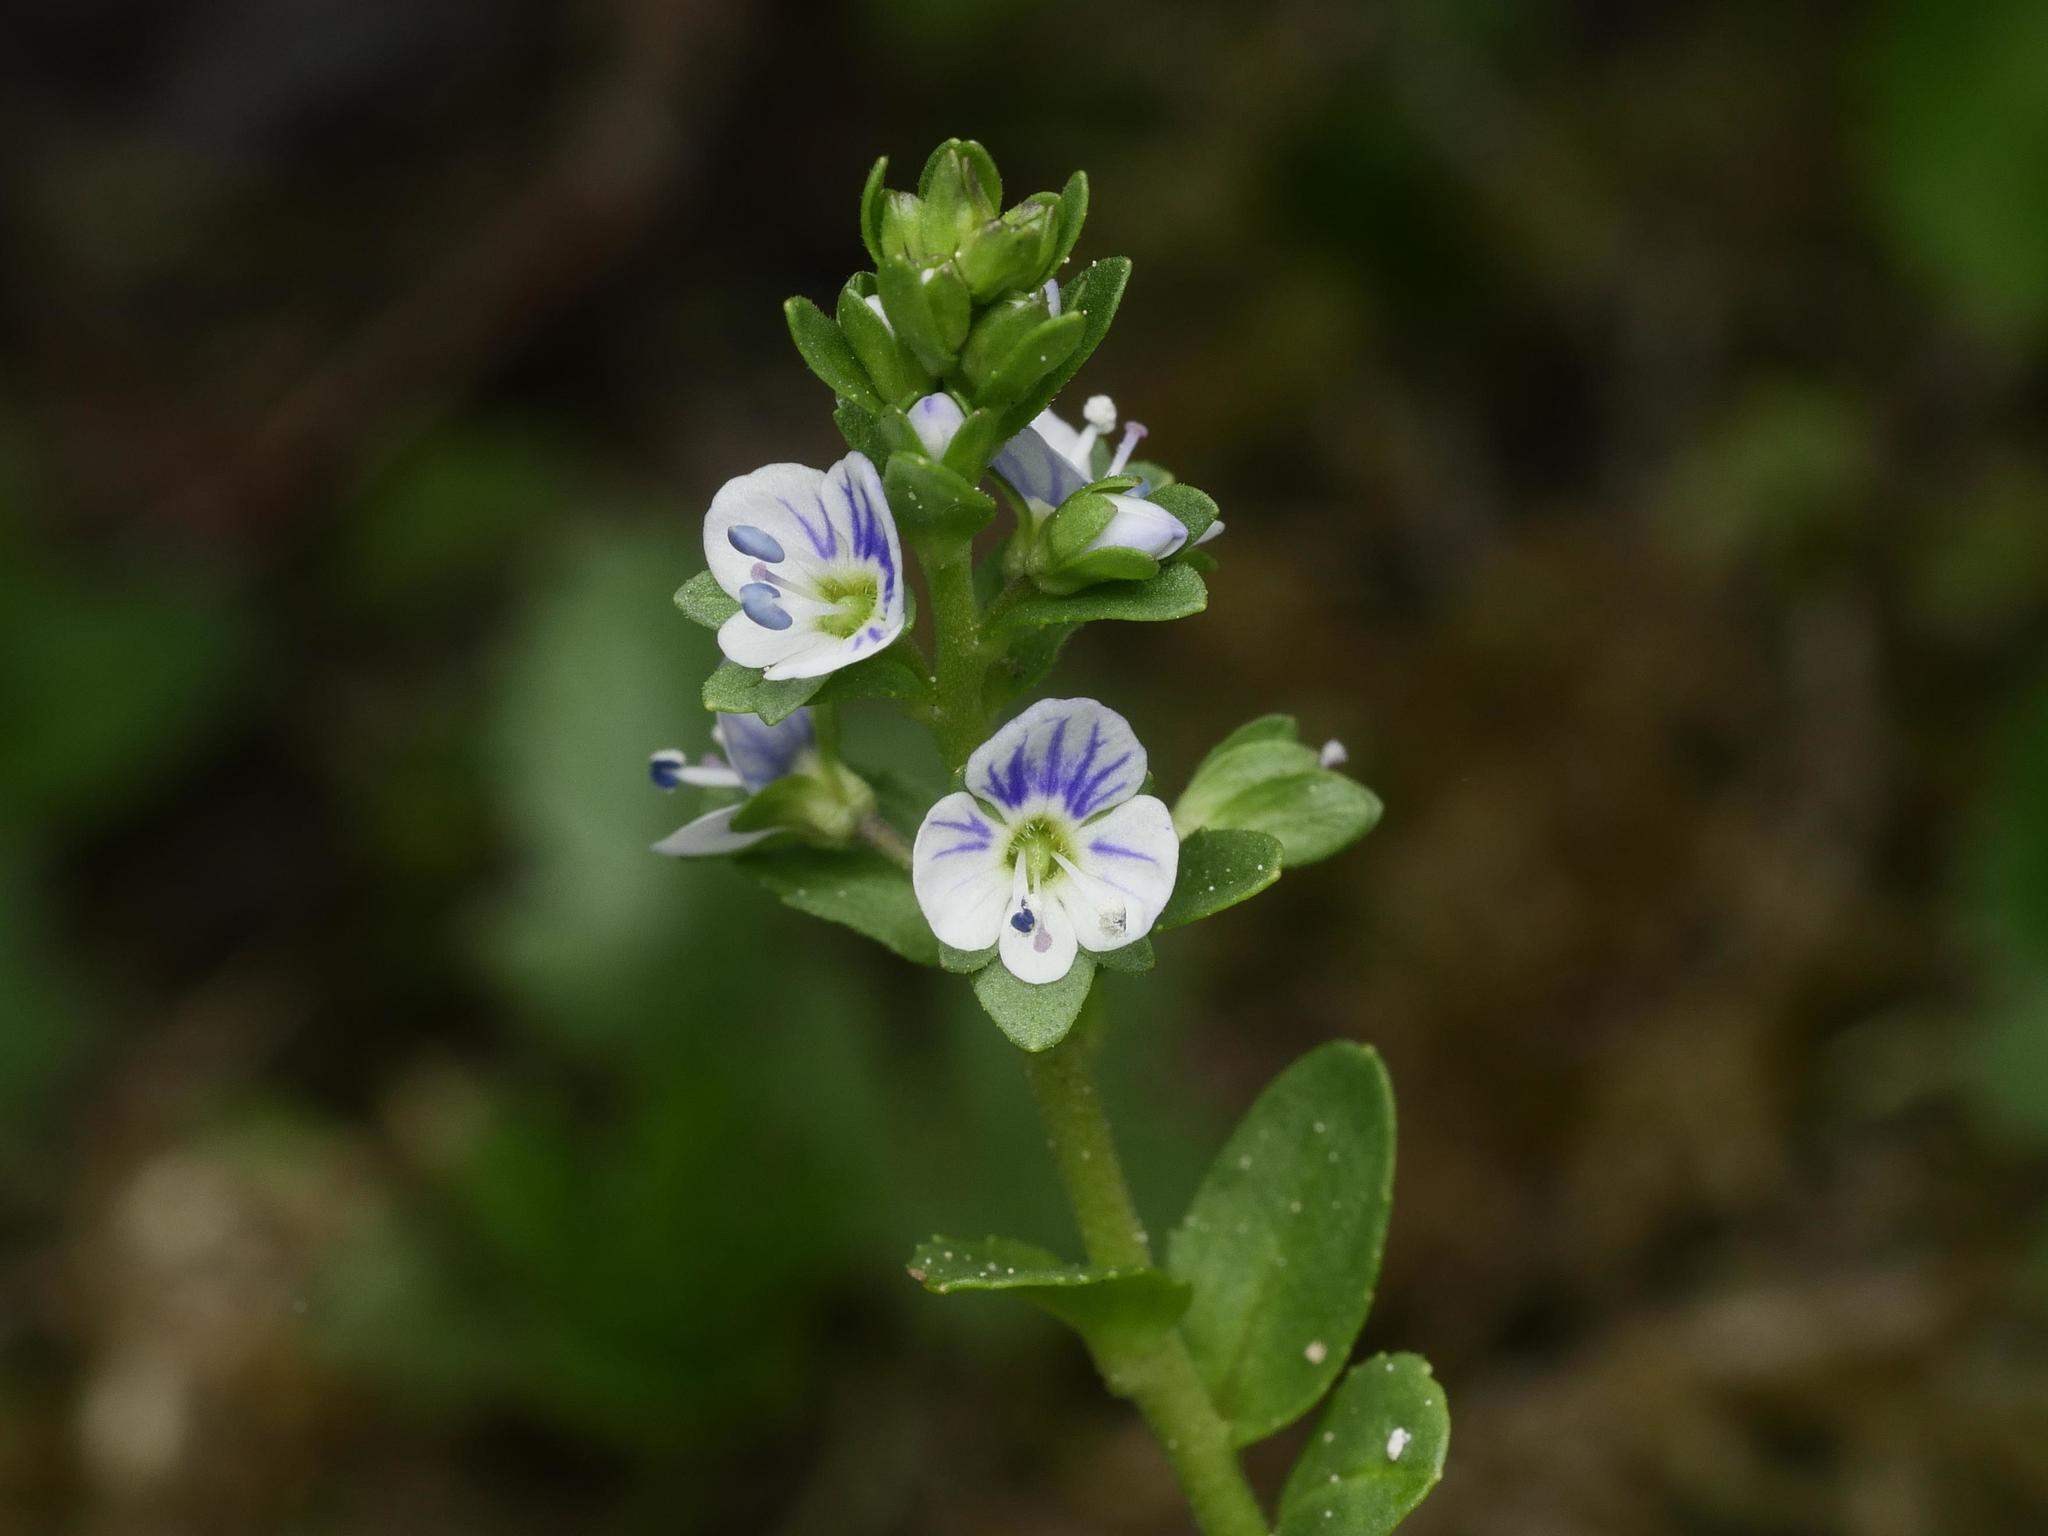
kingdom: Plantae
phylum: Tracheophyta
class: Magnoliopsida
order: Lamiales
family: Plantaginaceae
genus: Veronica
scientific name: Veronica serpyllifolia
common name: Thyme-leaved speedwell
